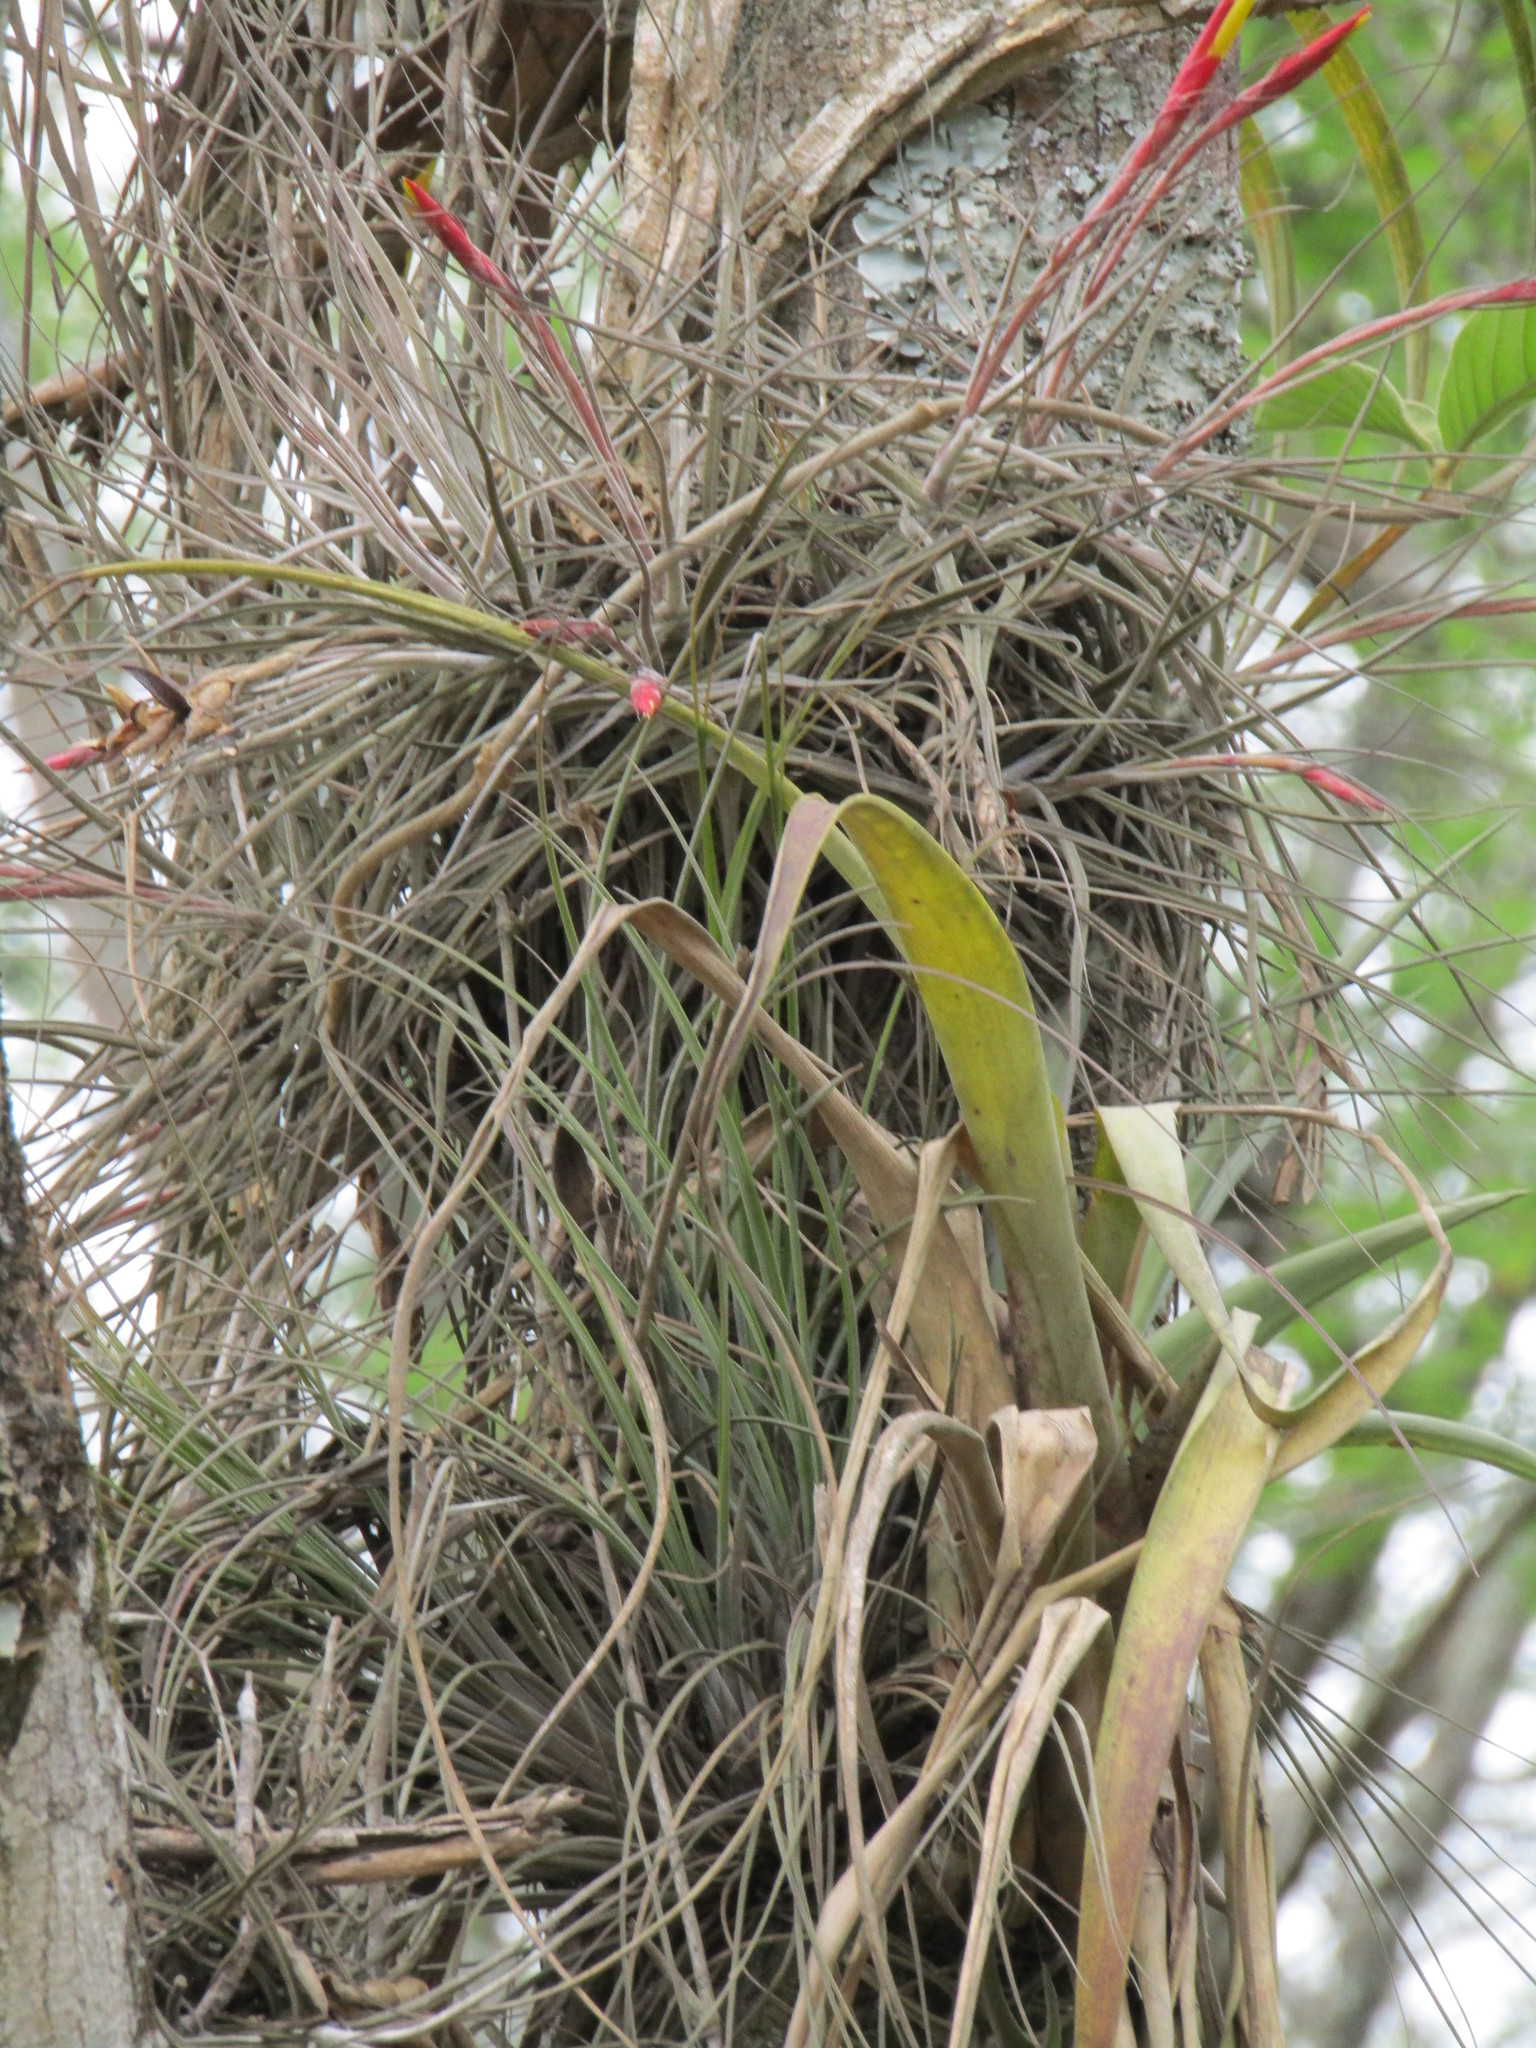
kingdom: Plantae
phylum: Tracheophyta
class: Liliopsida
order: Poales
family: Bromeliaceae
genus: Tillandsia
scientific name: Tillandsia schiedeana
